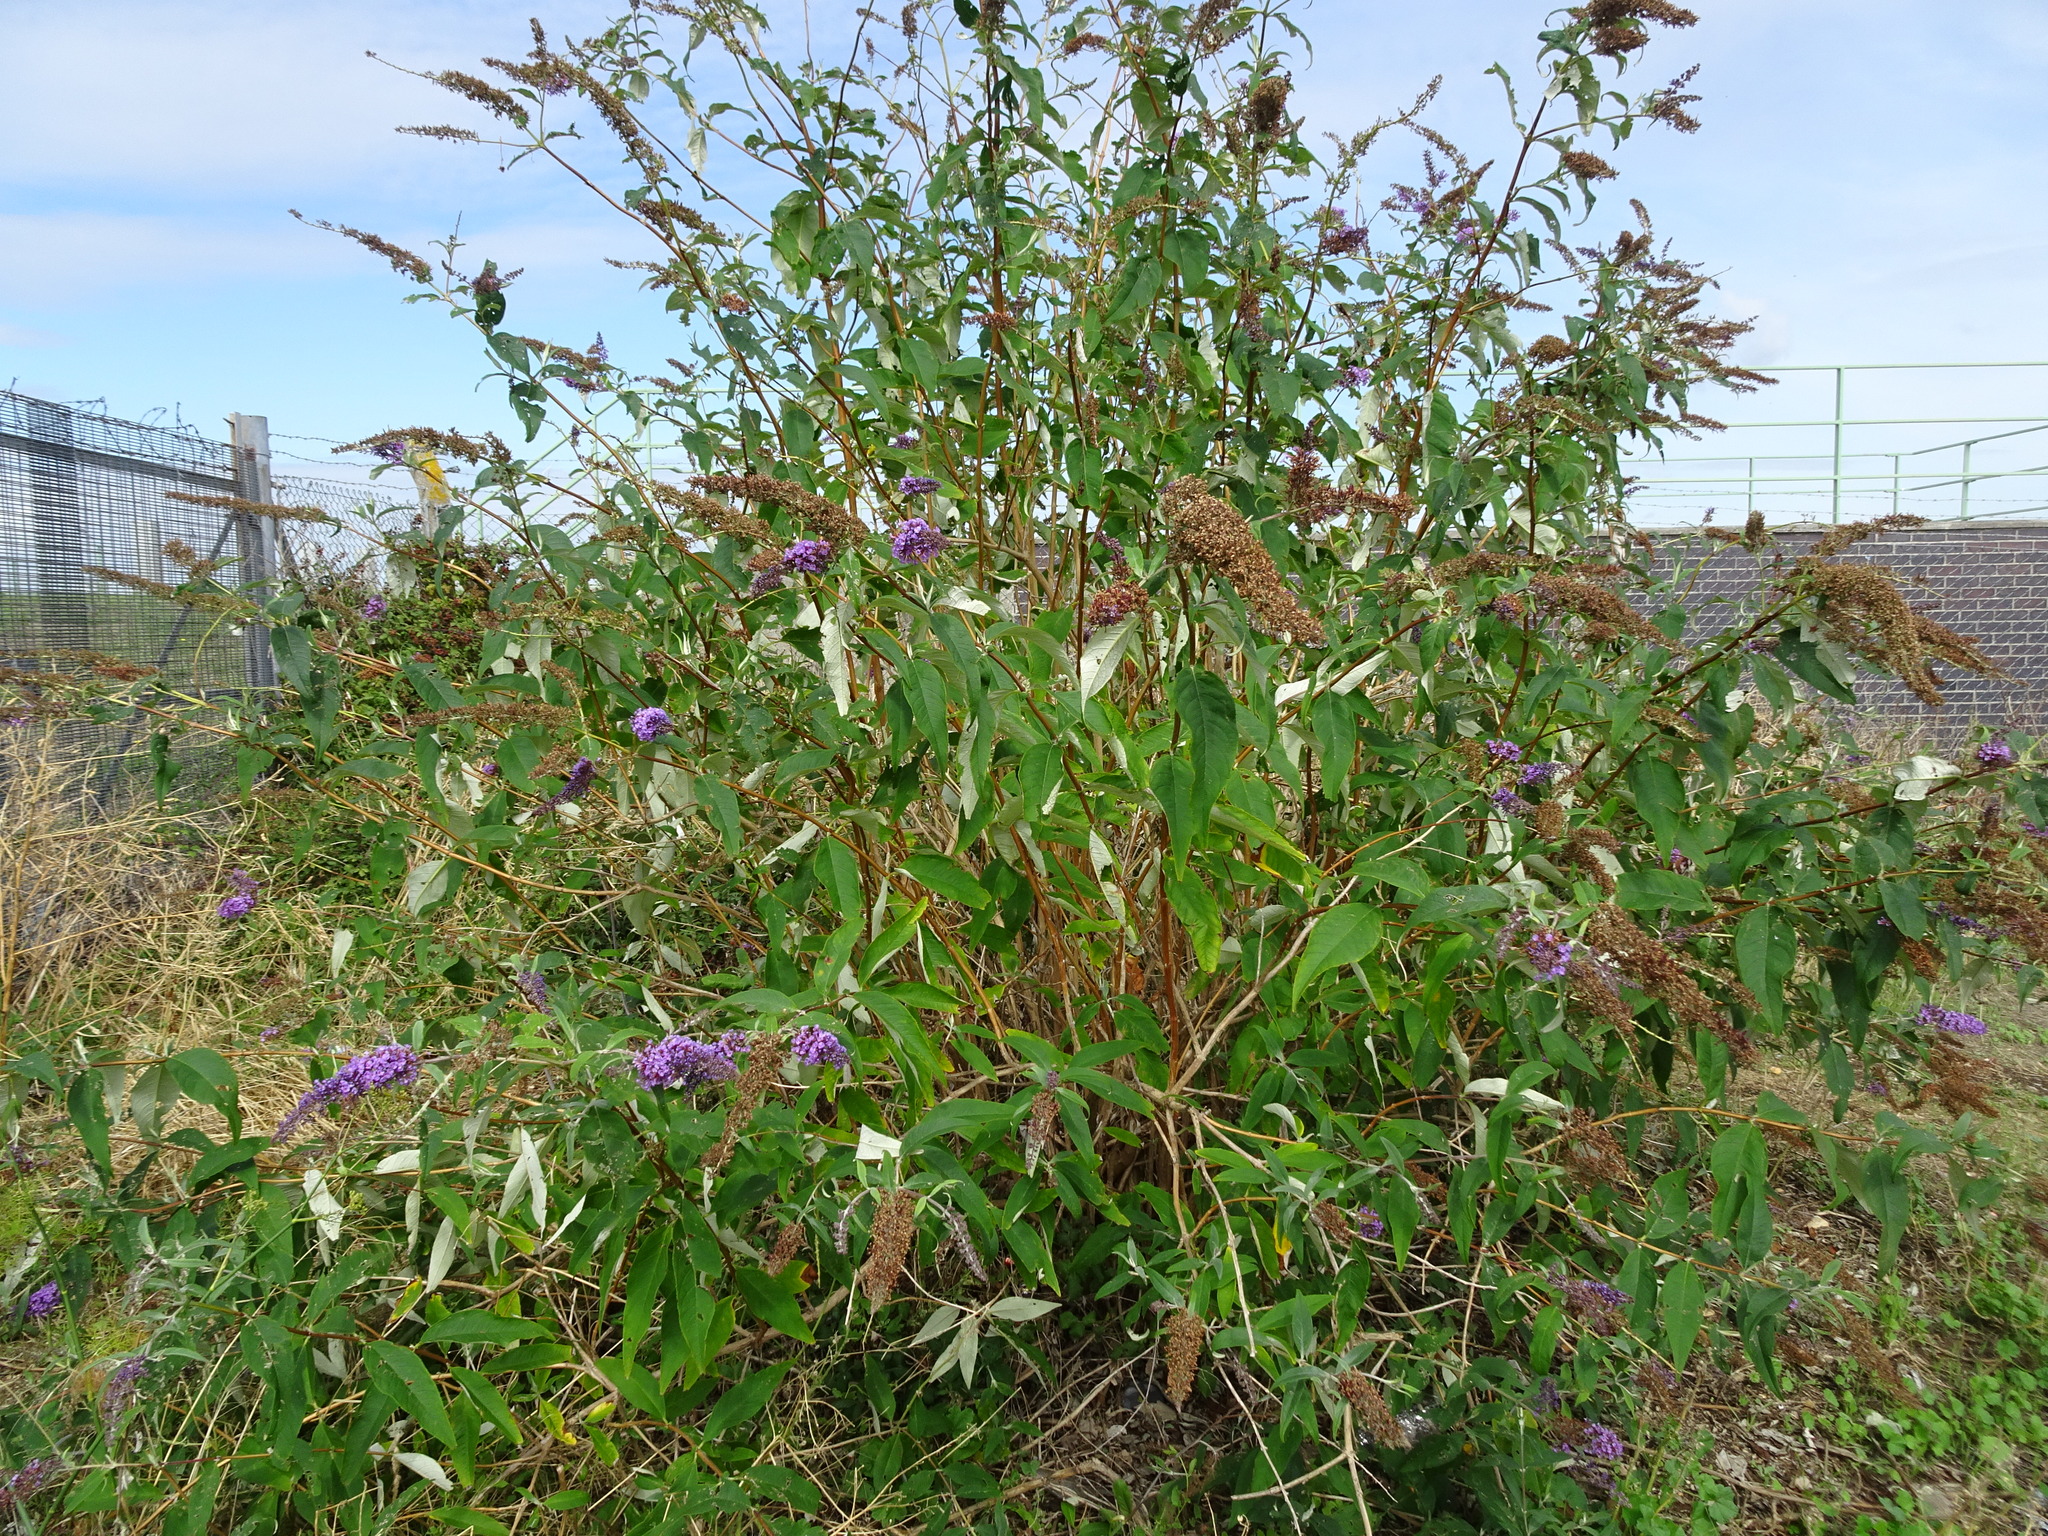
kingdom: Plantae
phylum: Tracheophyta
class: Magnoliopsida
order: Lamiales
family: Scrophulariaceae
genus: Buddleja
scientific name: Buddleja davidii
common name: Butterfly-bush
